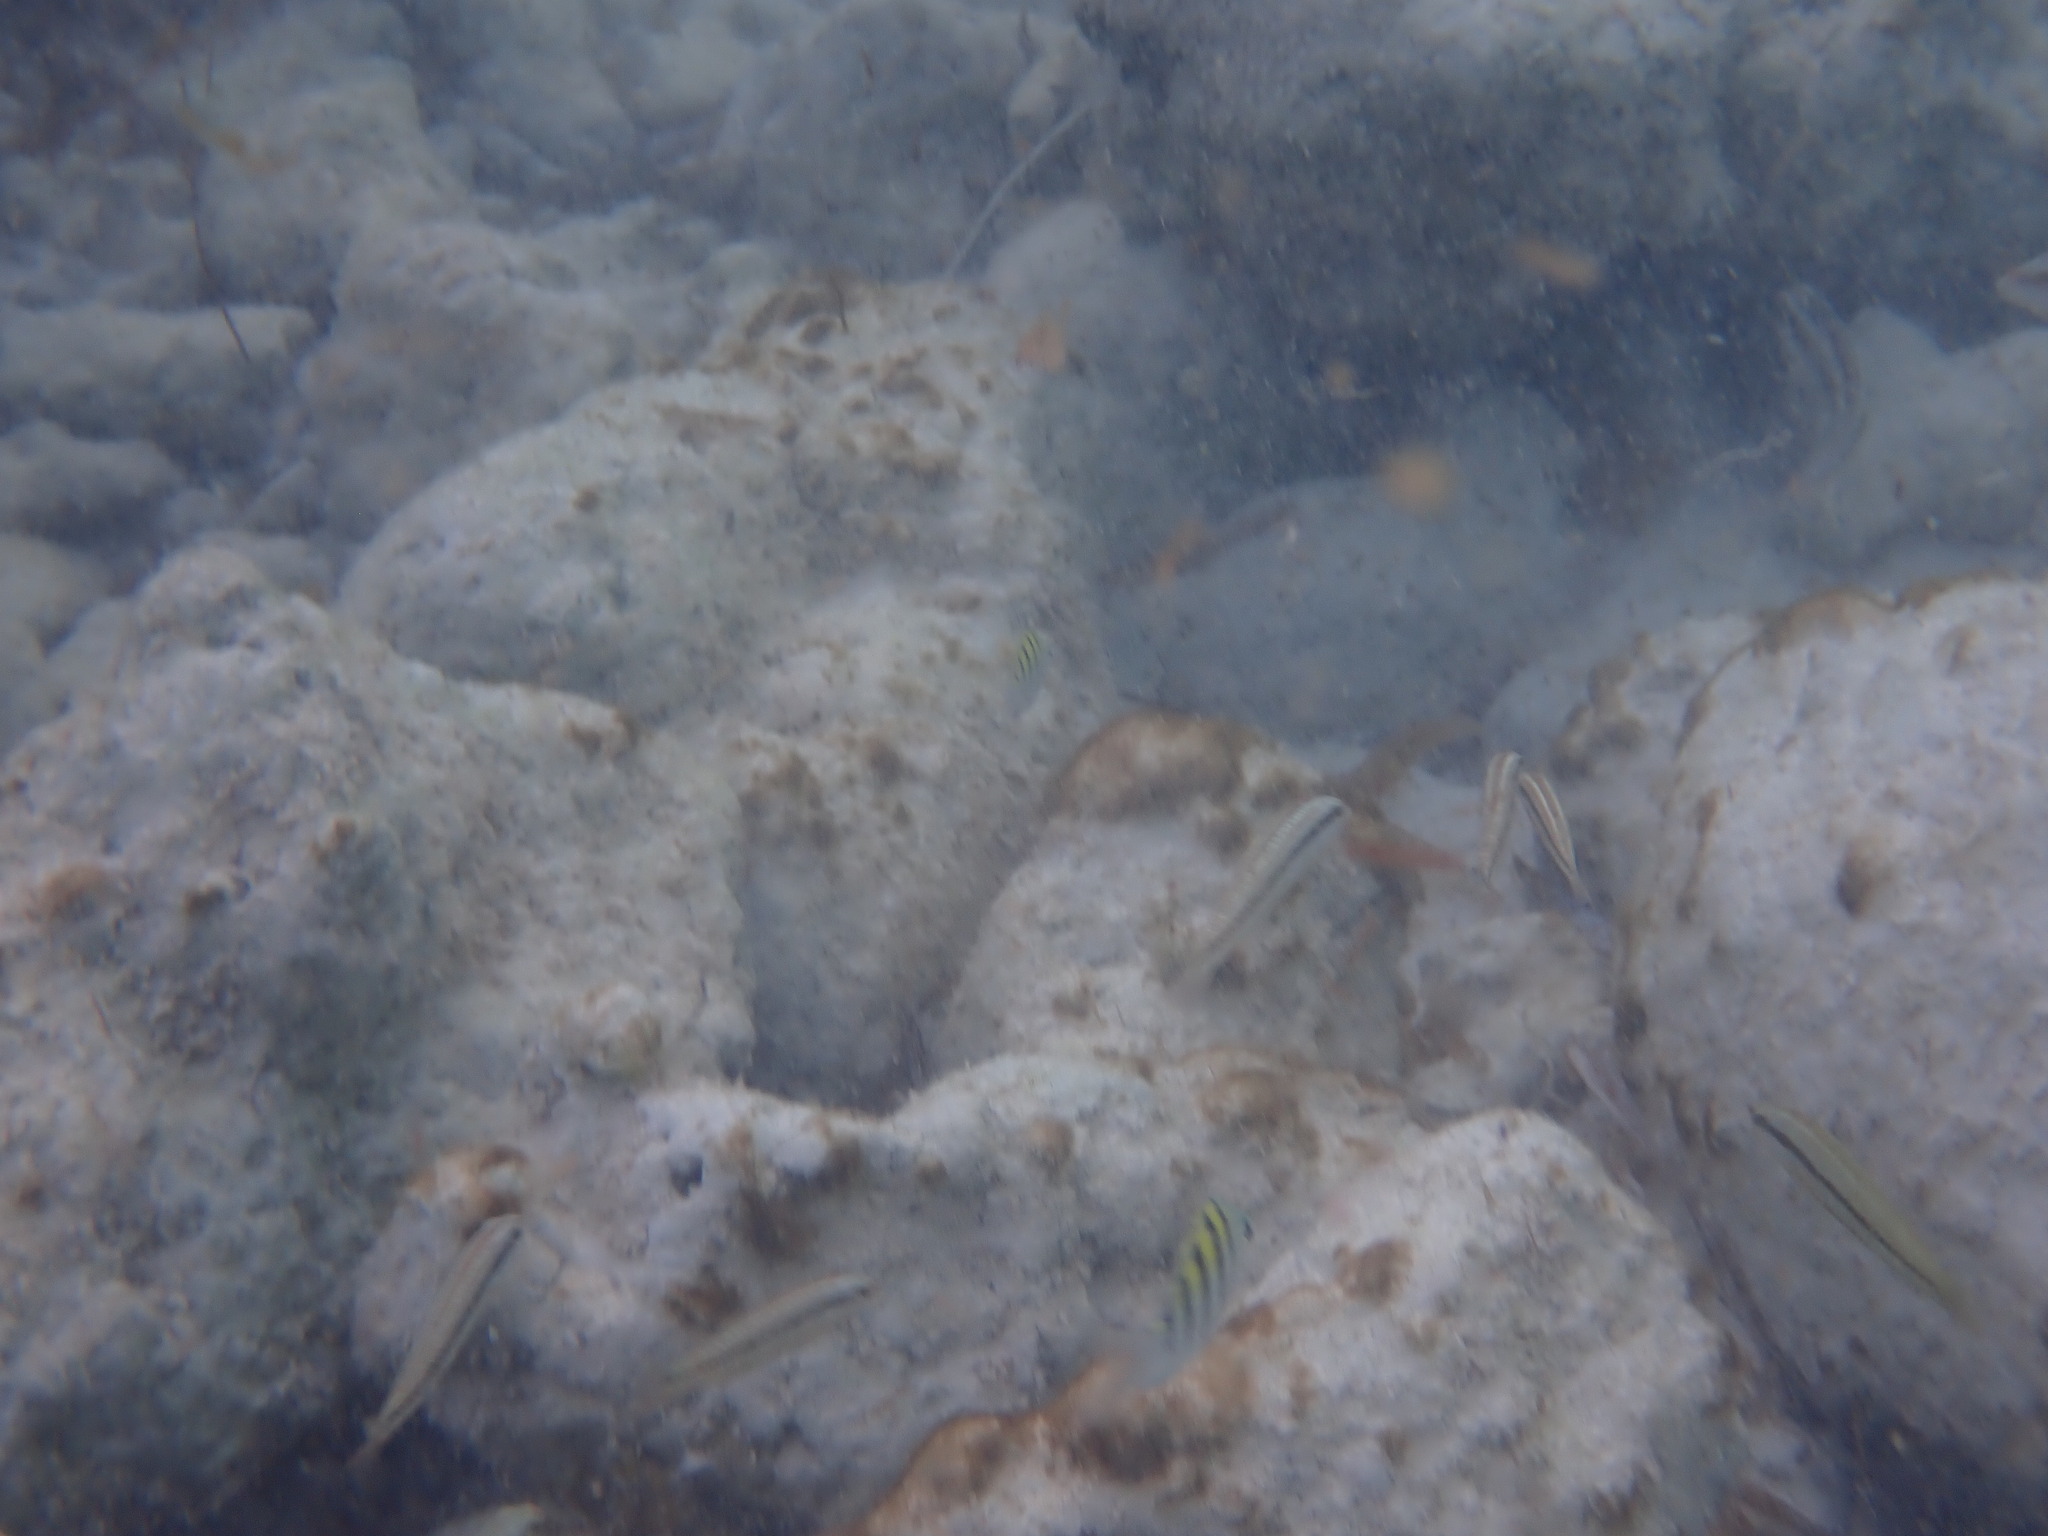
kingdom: Animalia
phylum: Chordata
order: Perciformes
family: Labridae
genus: Halichoeres
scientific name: Halichoeres bivittatus
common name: Slippery dick
